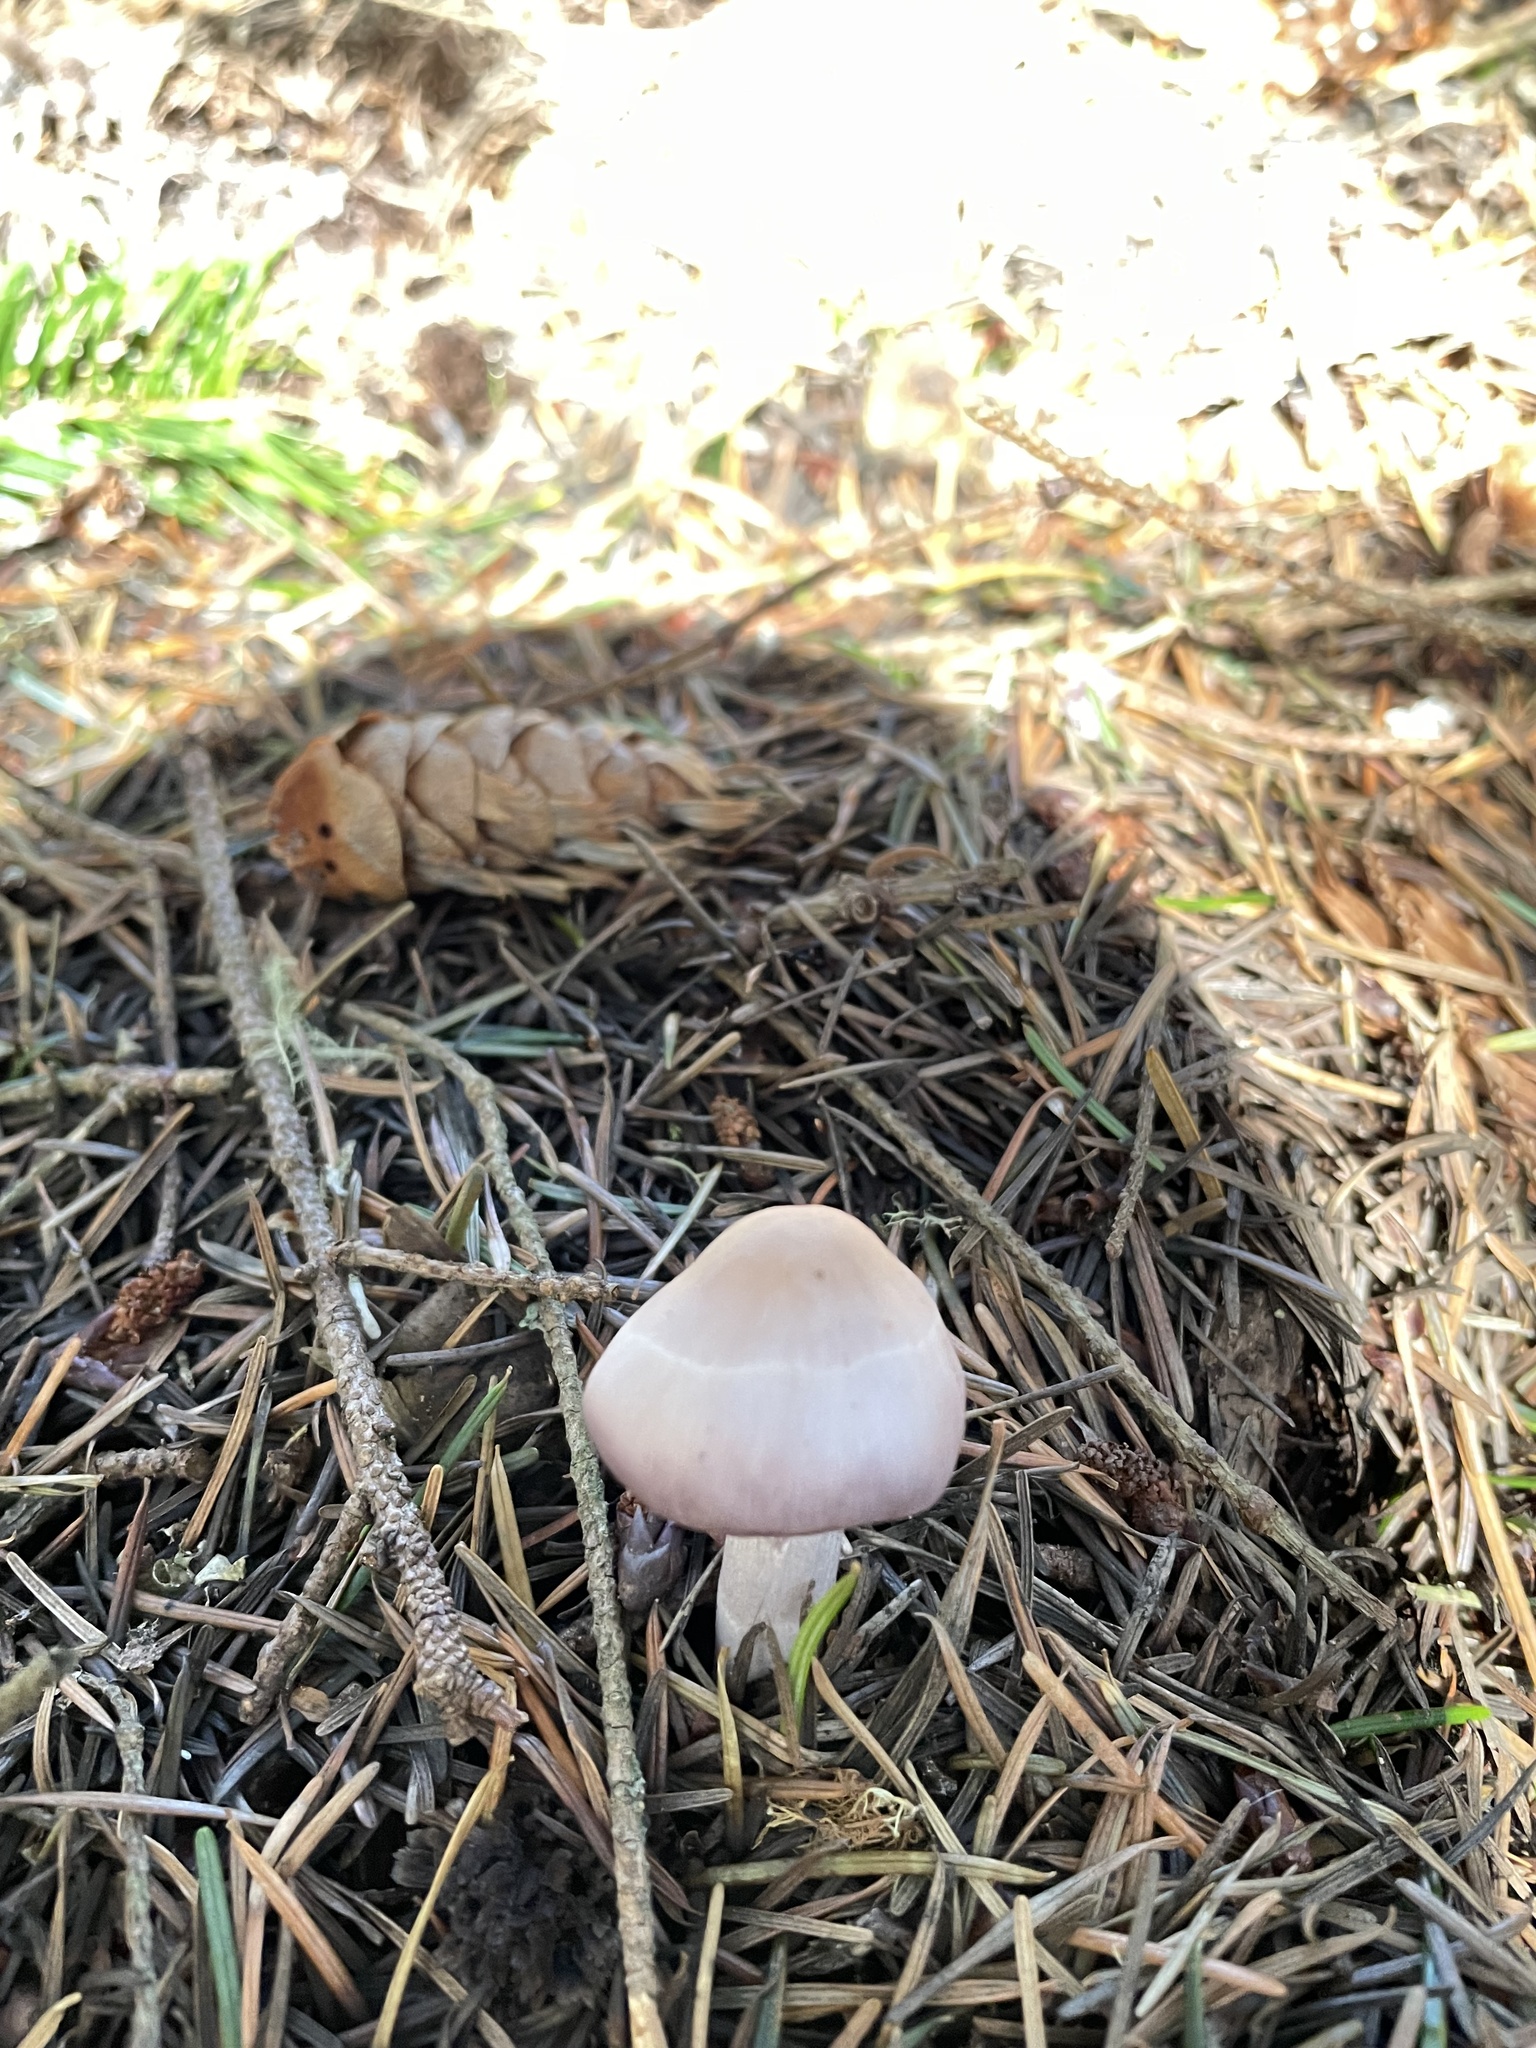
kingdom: Fungi
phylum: Basidiomycota
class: Agaricomycetes
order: Agaricales
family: Inocybaceae
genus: Inocybe
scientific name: Inocybe ionocephala
